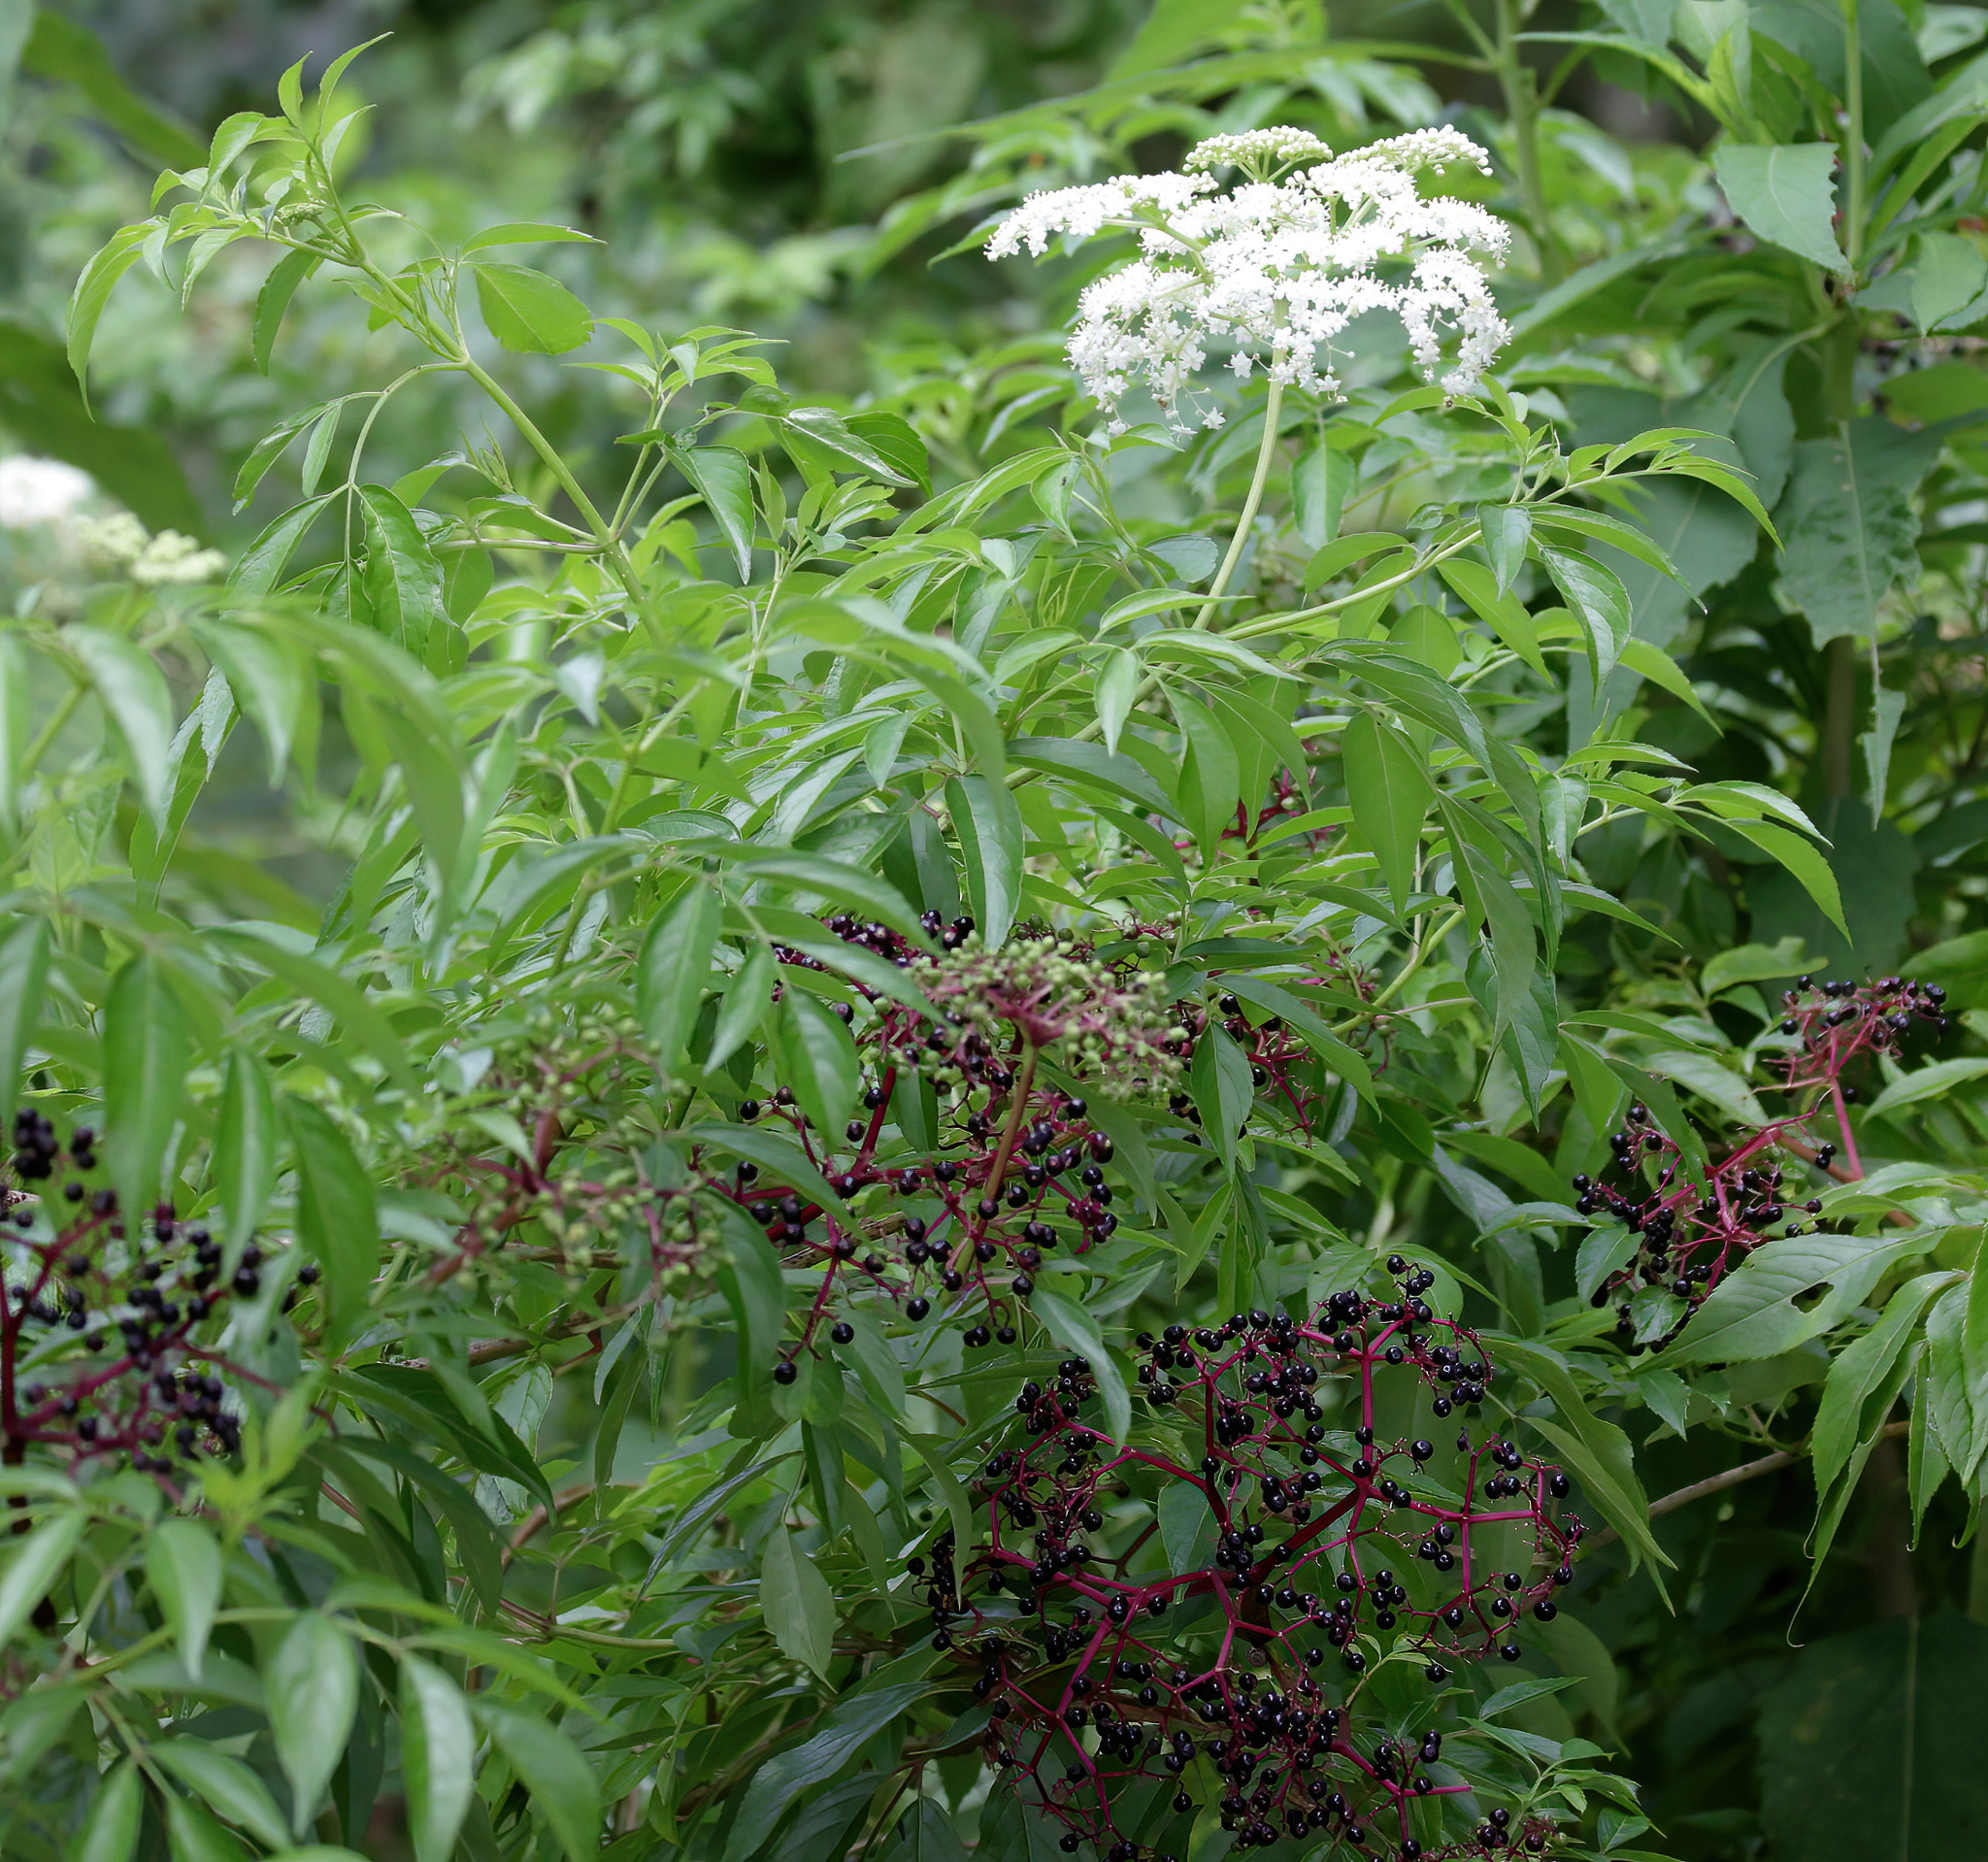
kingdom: Plantae
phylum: Tracheophyta
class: Magnoliopsida
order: Dipsacales
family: Viburnaceae
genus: Sambucus
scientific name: Sambucus canadensis
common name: American elder
